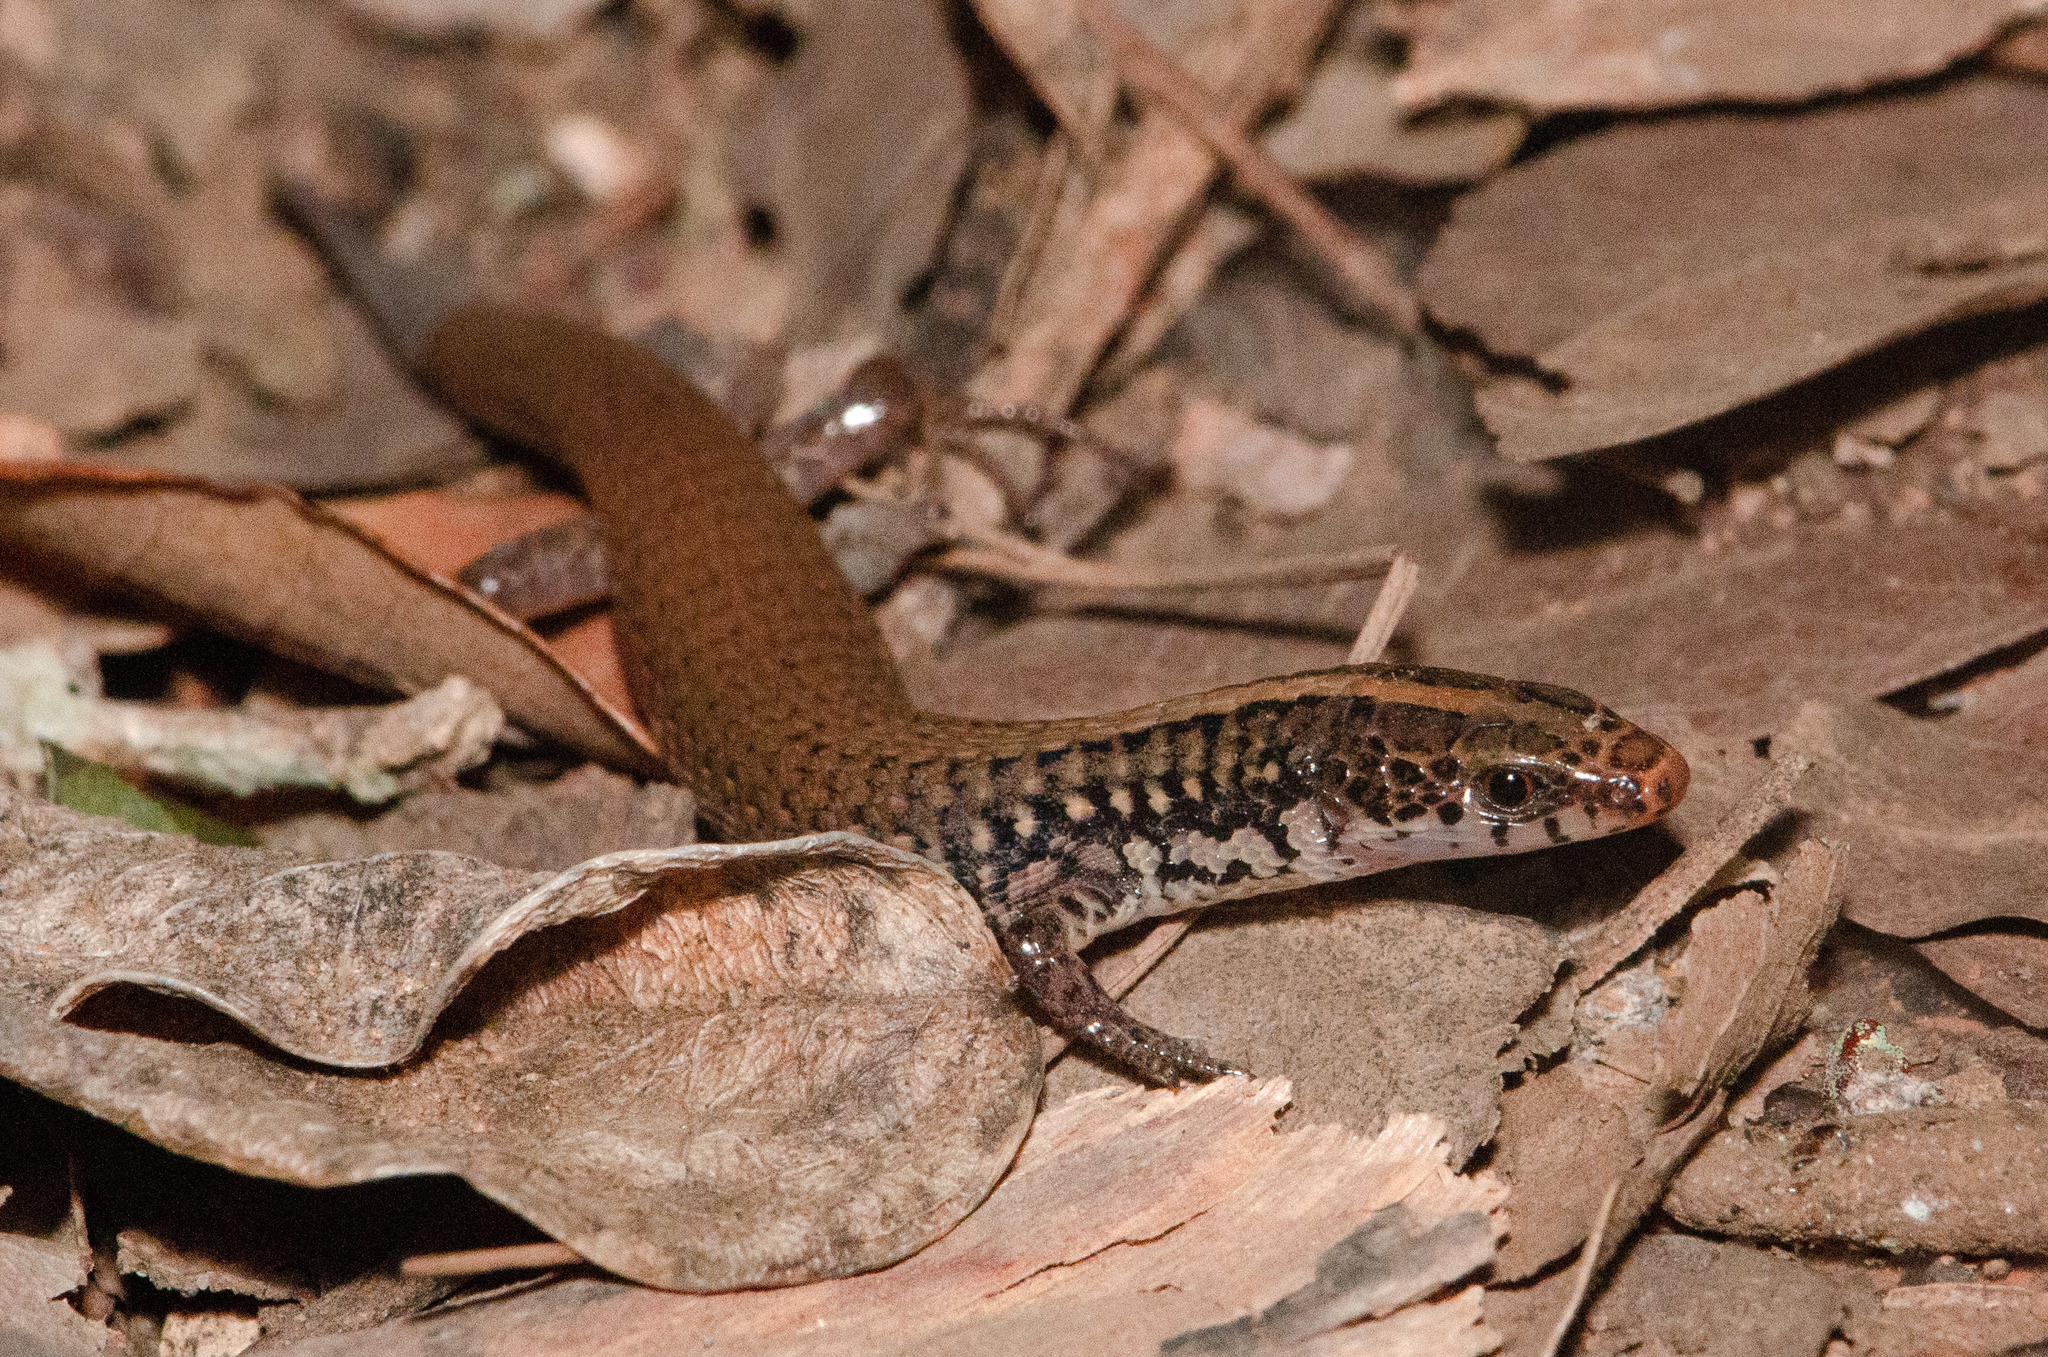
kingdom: Animalia
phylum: Chordata
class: Squamata
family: Gymnophthalmidae
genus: Acratosaura
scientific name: Acratosaura mentalis
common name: Amaral's colobosaura
